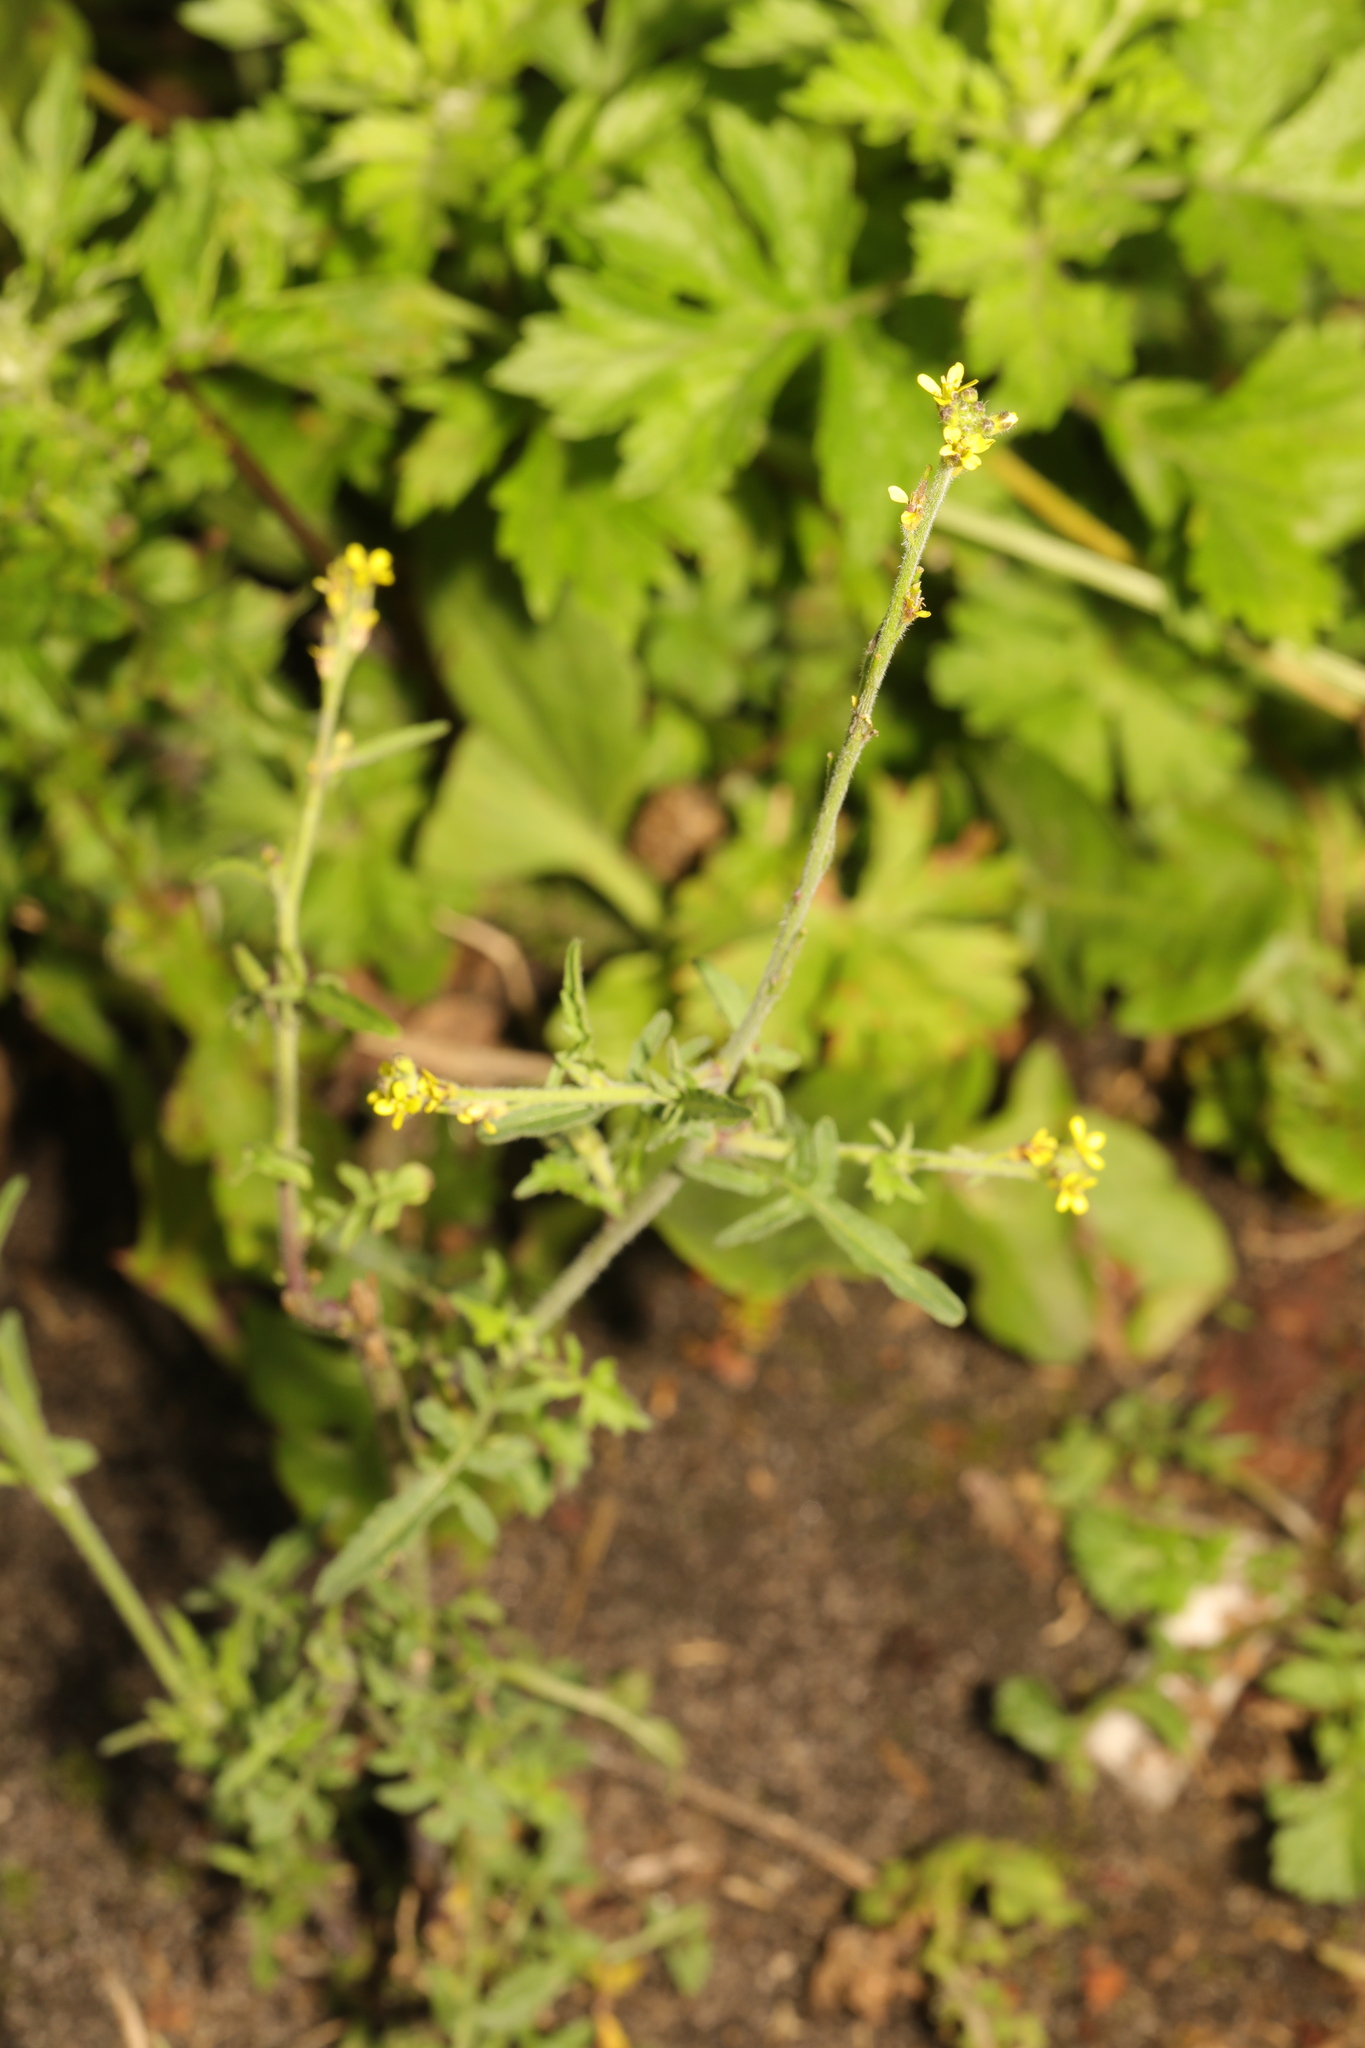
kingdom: Plantae
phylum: Tracheophyta
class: Magnoliopsida
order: Brassicales
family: Brassicaceae
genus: Sisymbrium
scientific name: Sisymbrium officinale
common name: Hedge mustard
